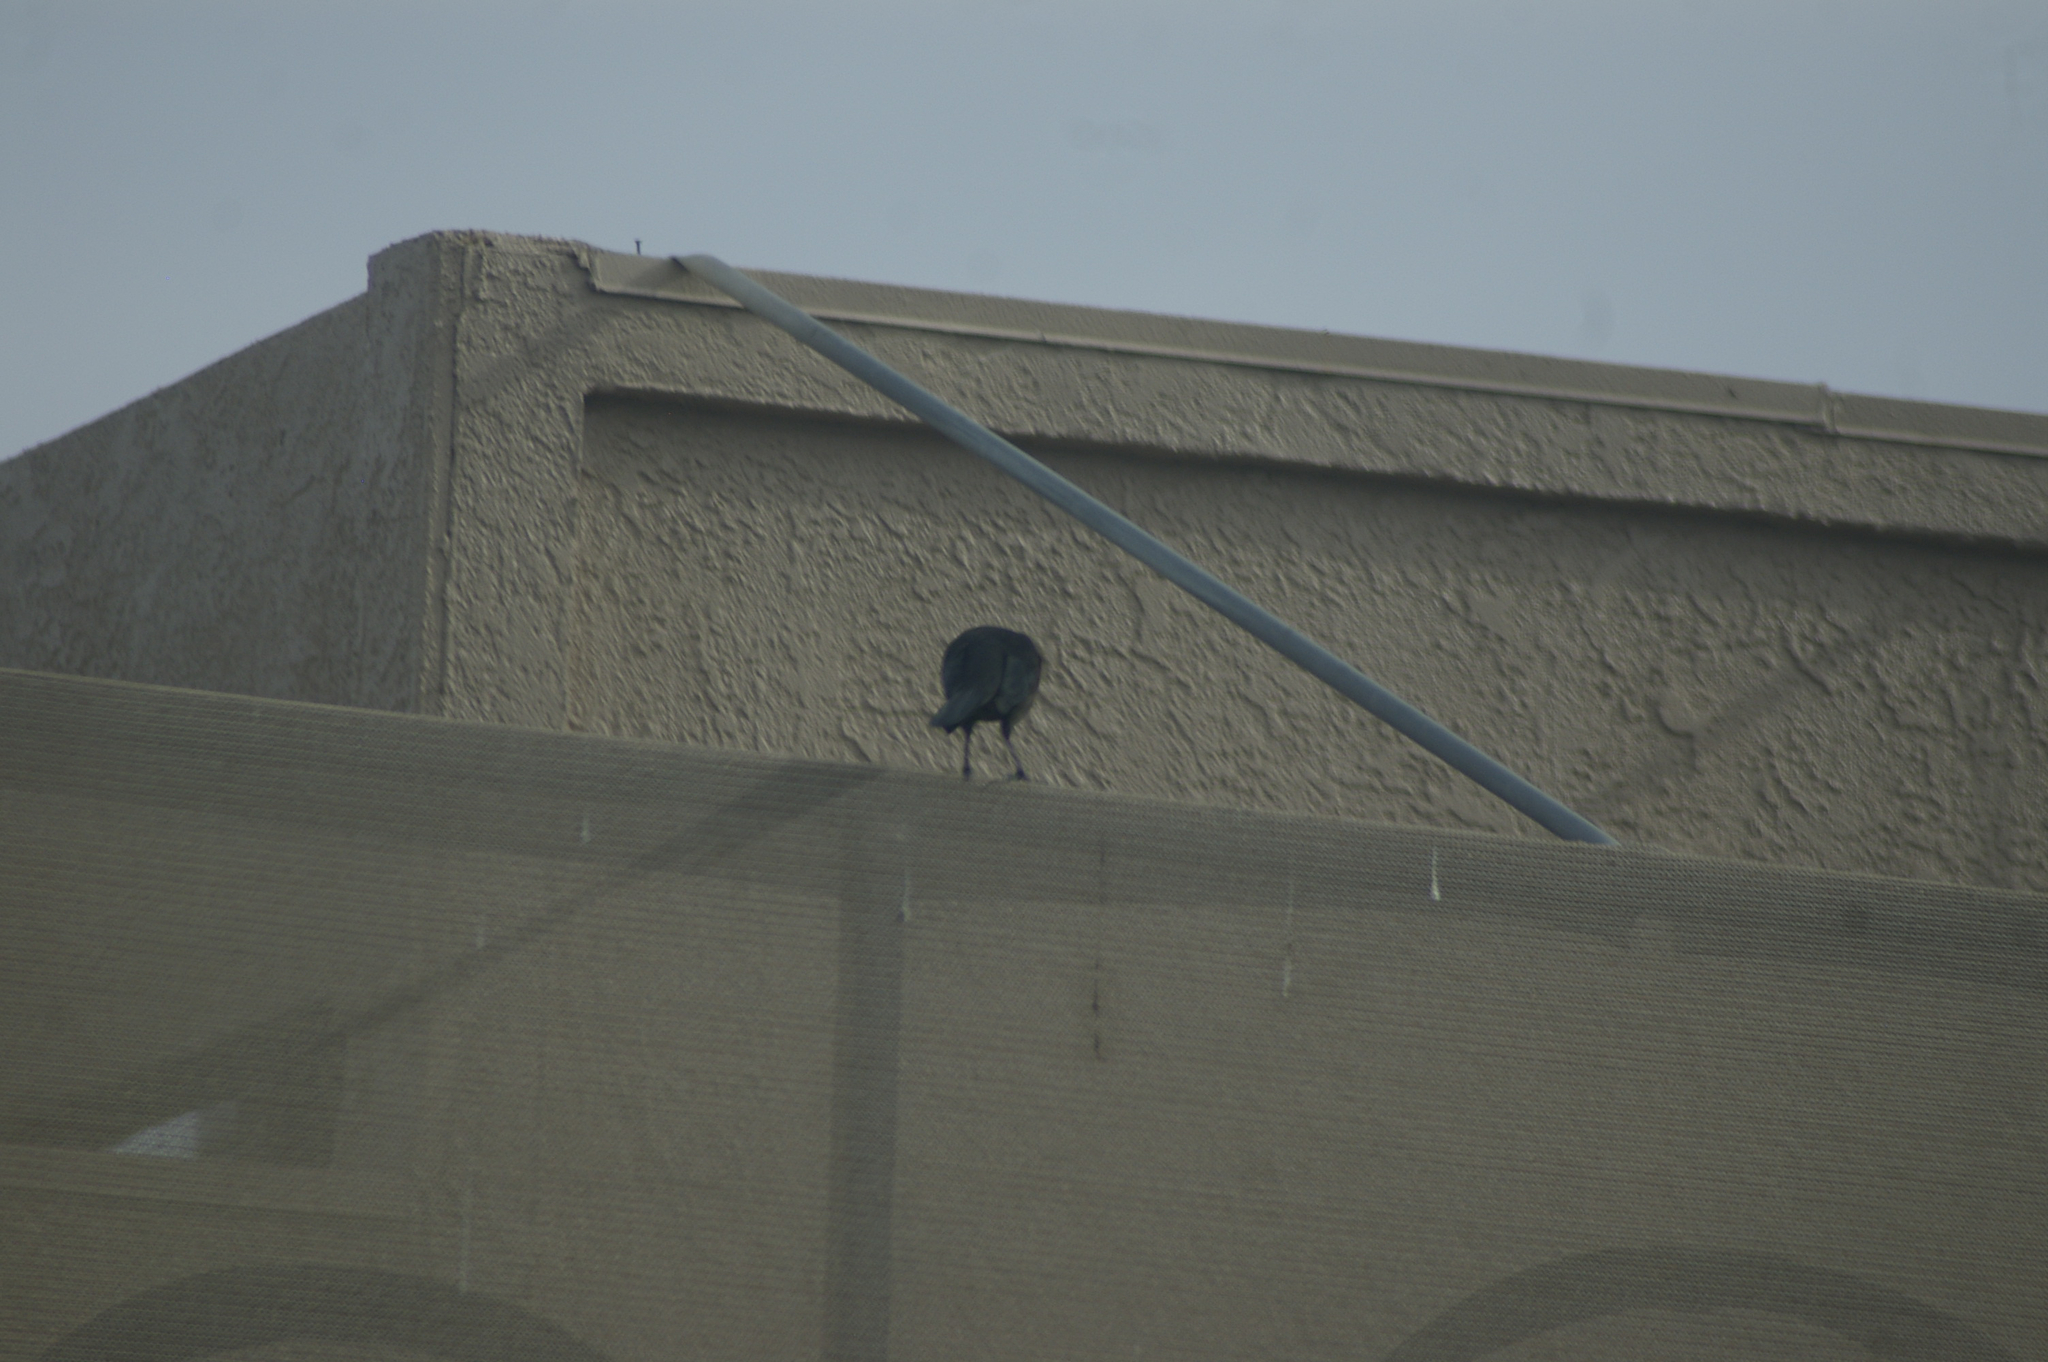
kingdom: Animalia
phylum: Chordata
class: Aves
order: Passeriformes
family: Icteridae
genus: Quiscalus
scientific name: Quiscalus mexicanus
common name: Great-tailed grackle
